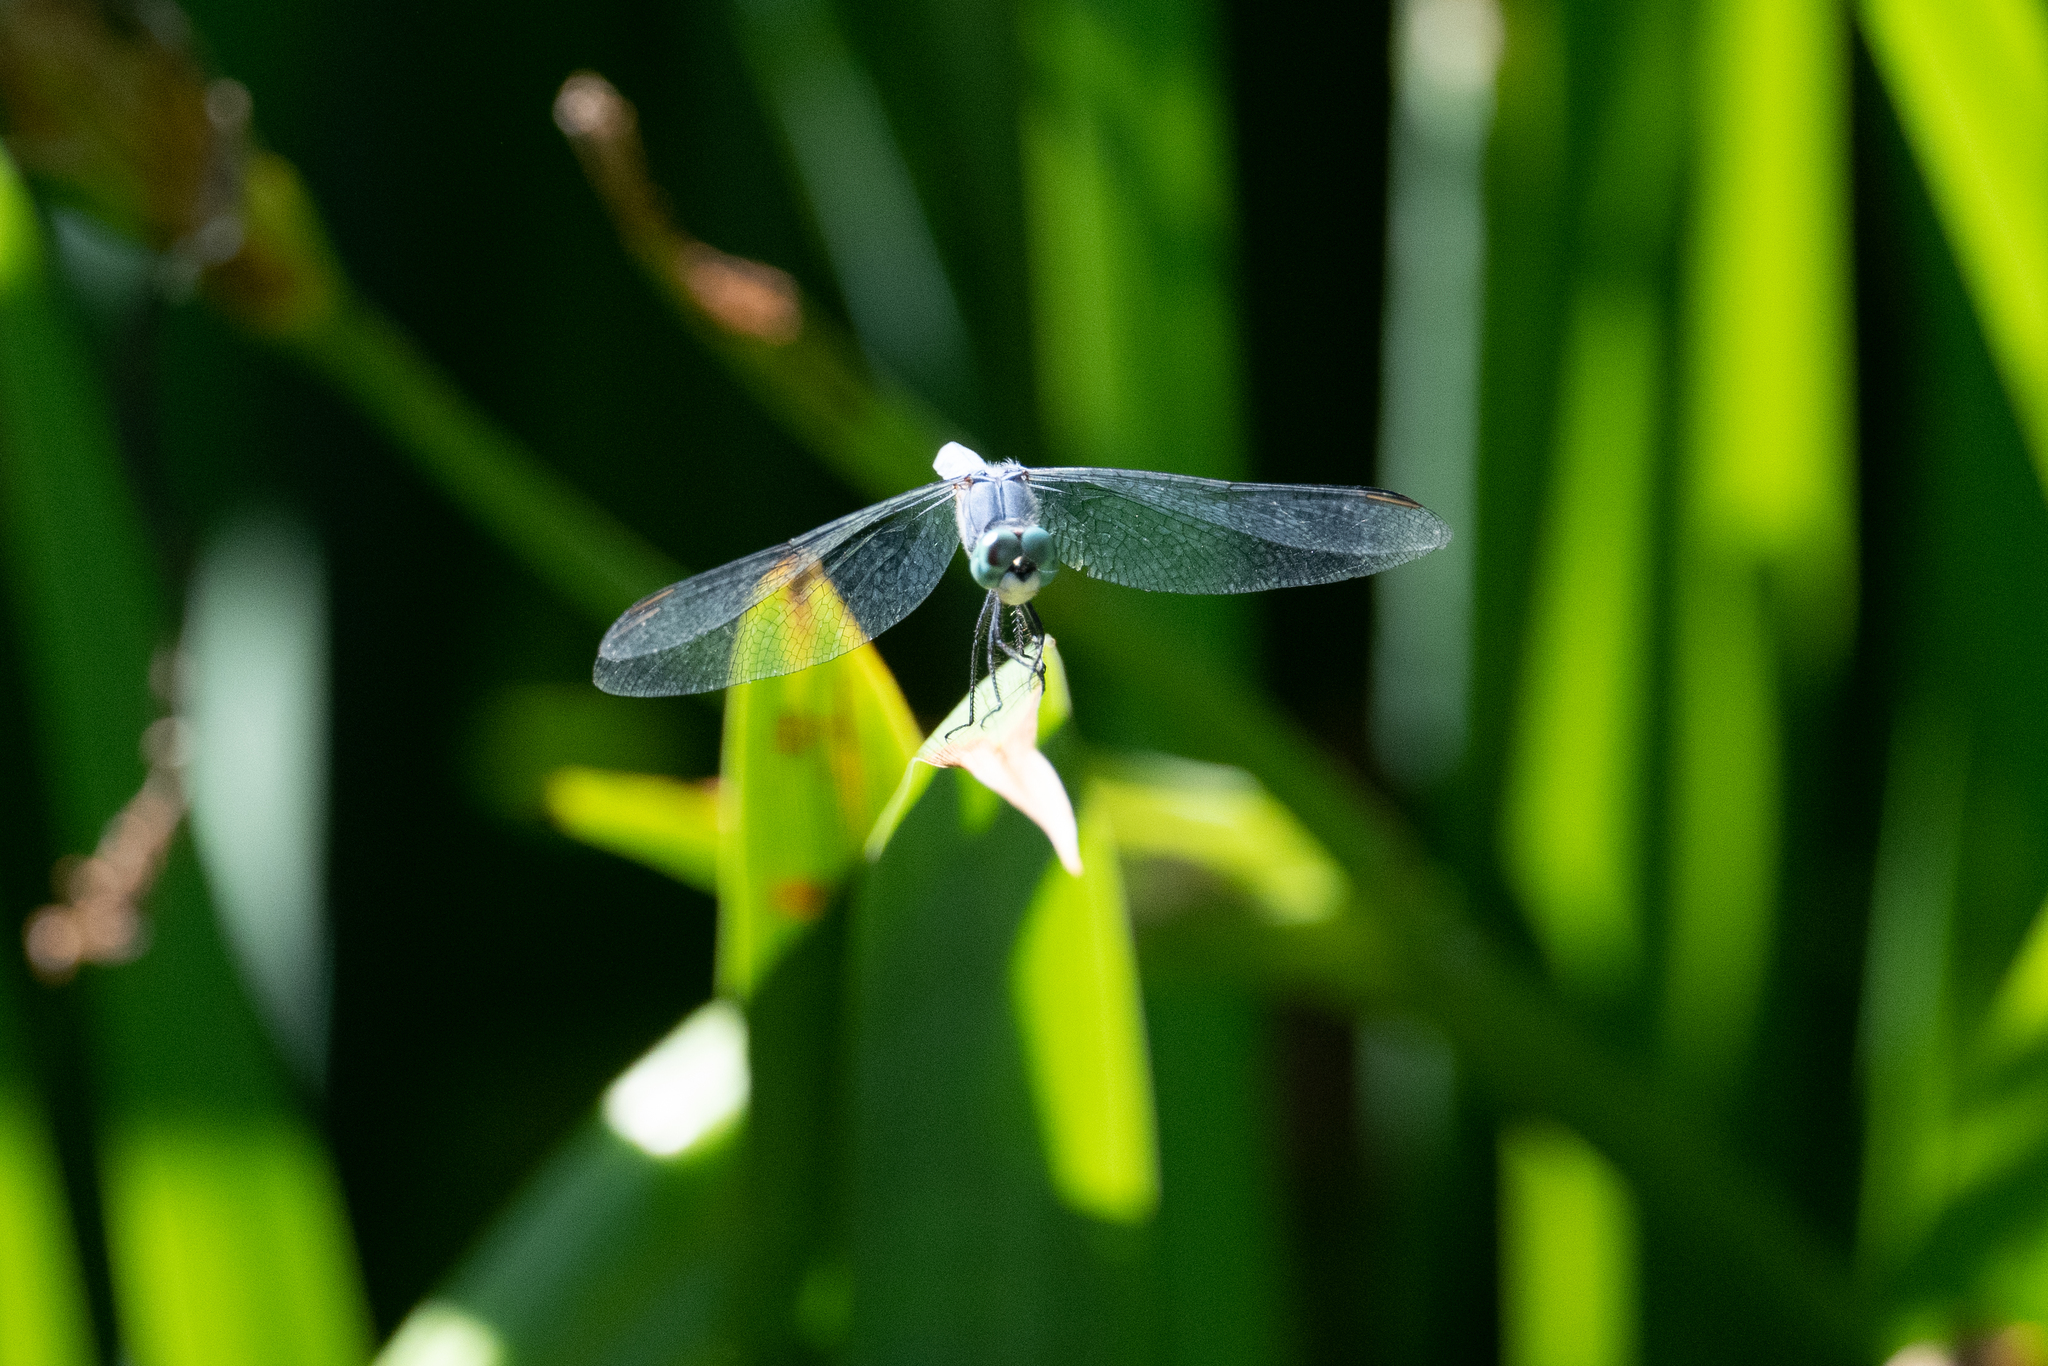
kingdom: Animalia
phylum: Arthropoda
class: Insecta
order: Odonata
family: Libellulidae
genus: Pachydiplax
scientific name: Pachydiplax longipennis
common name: Blue dasher
